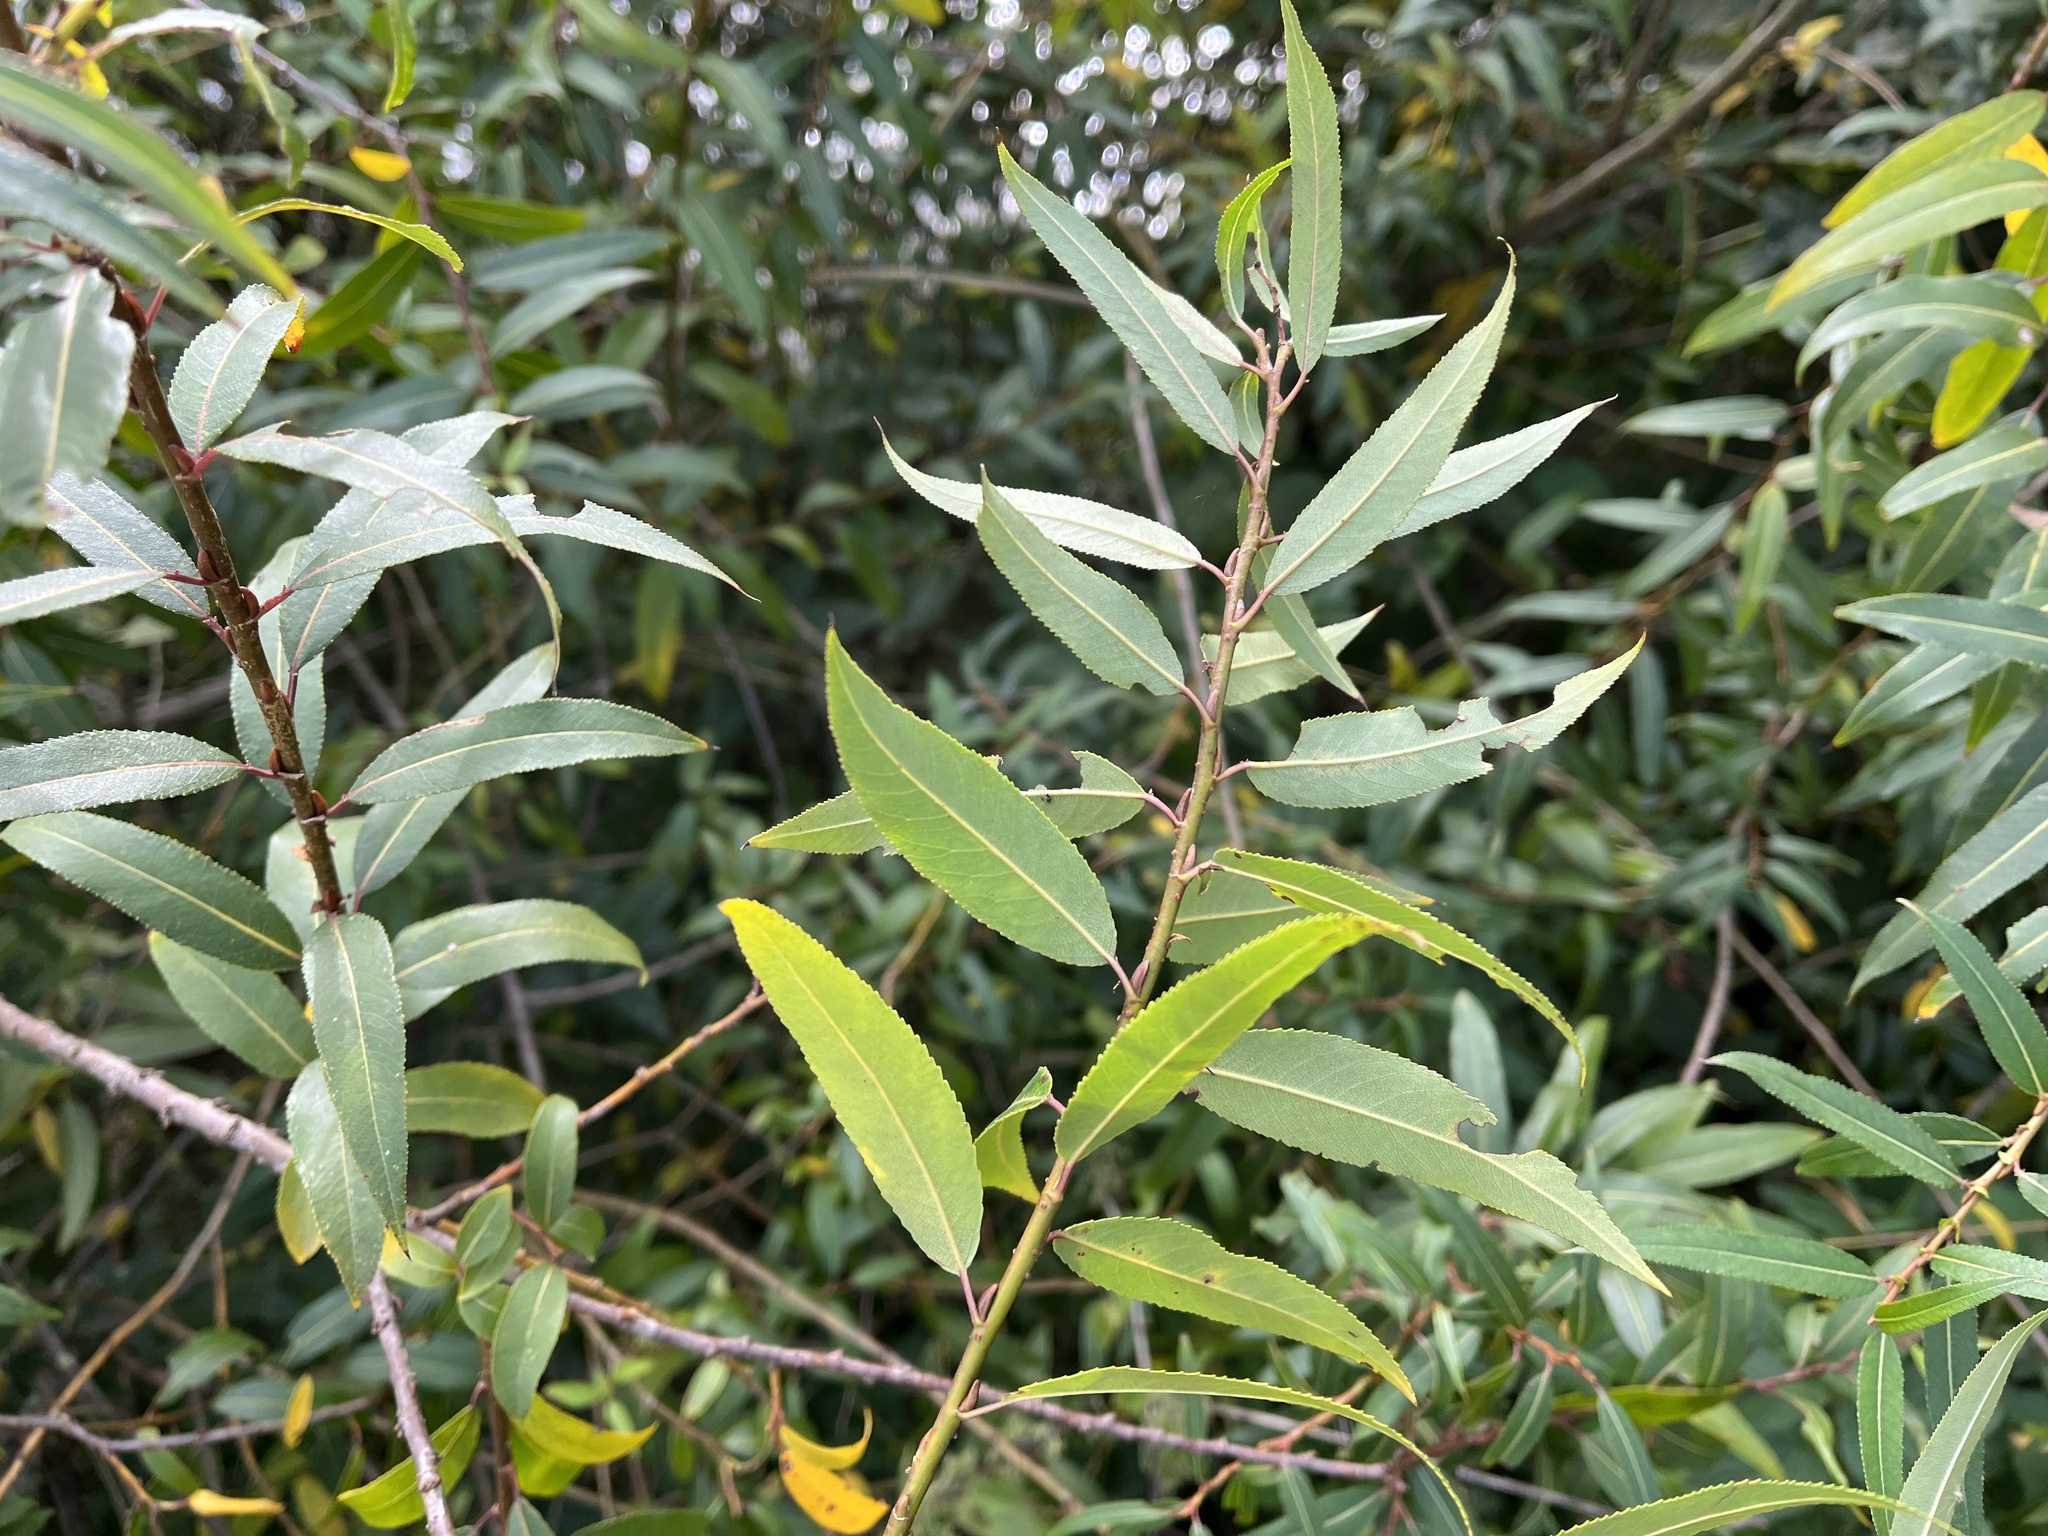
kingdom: Plantae
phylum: Tracheophyta
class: Magnoliopsida
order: Malpighiales
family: Salicaceae
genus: Salix
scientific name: Salix triandra
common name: Almond willow
